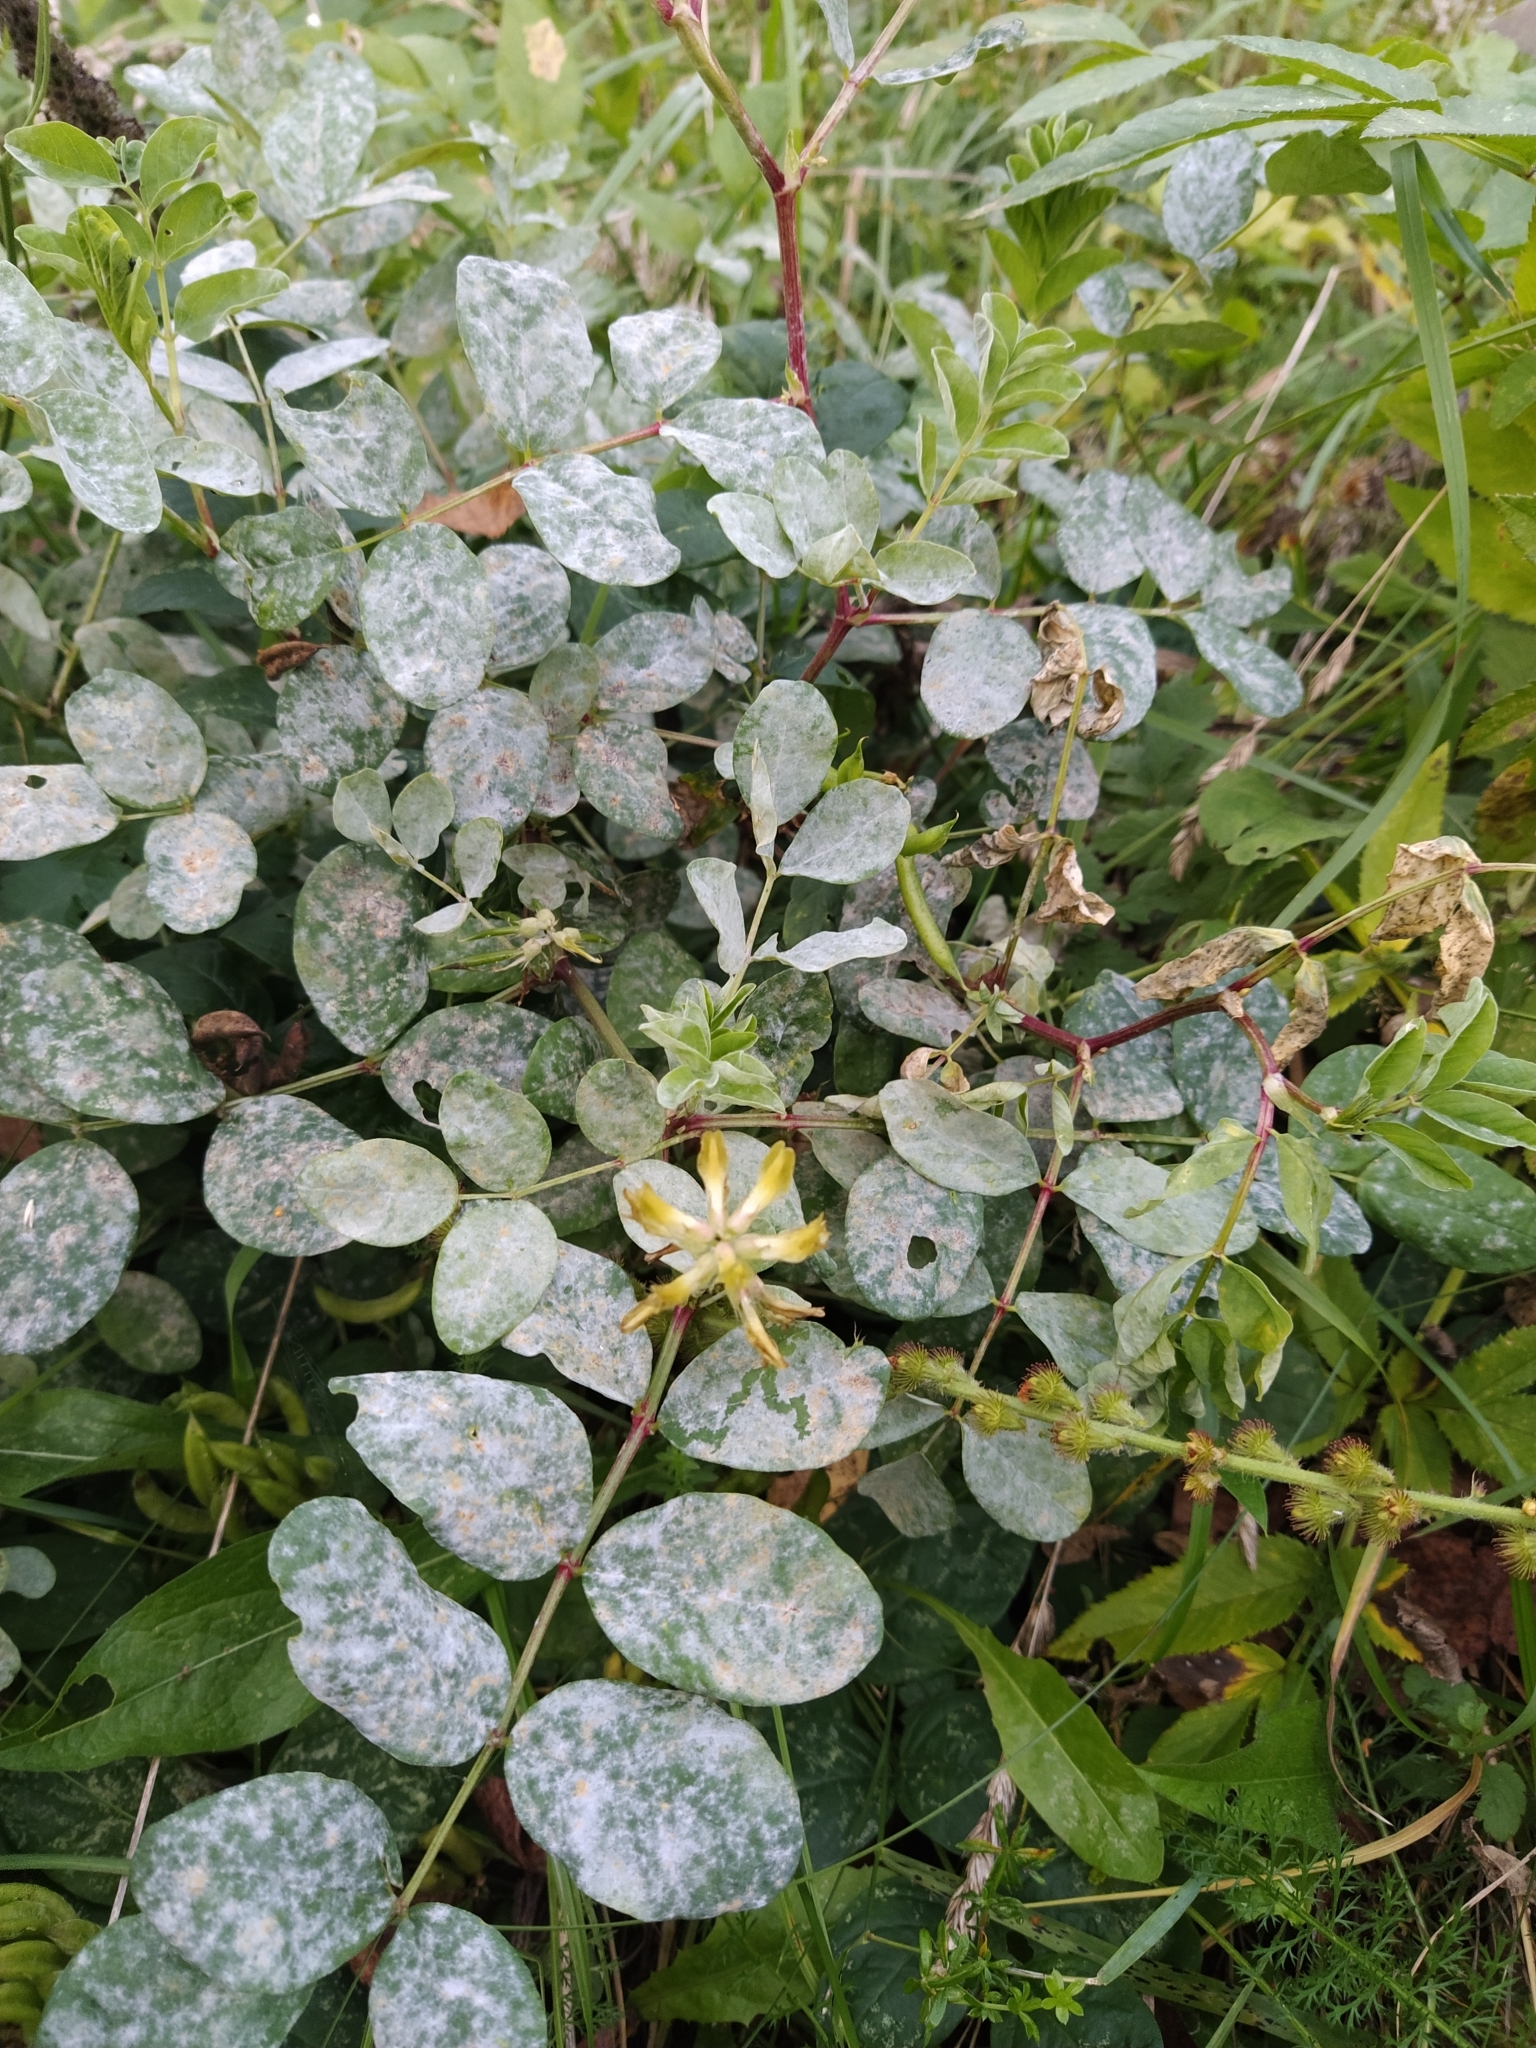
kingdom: Plantae
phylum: Tracheophyta
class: Magnoliopsida
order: Fabales
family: Fabaceae
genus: Astragalus
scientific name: Astragalus glycyphyllos
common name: Wild liquorice
